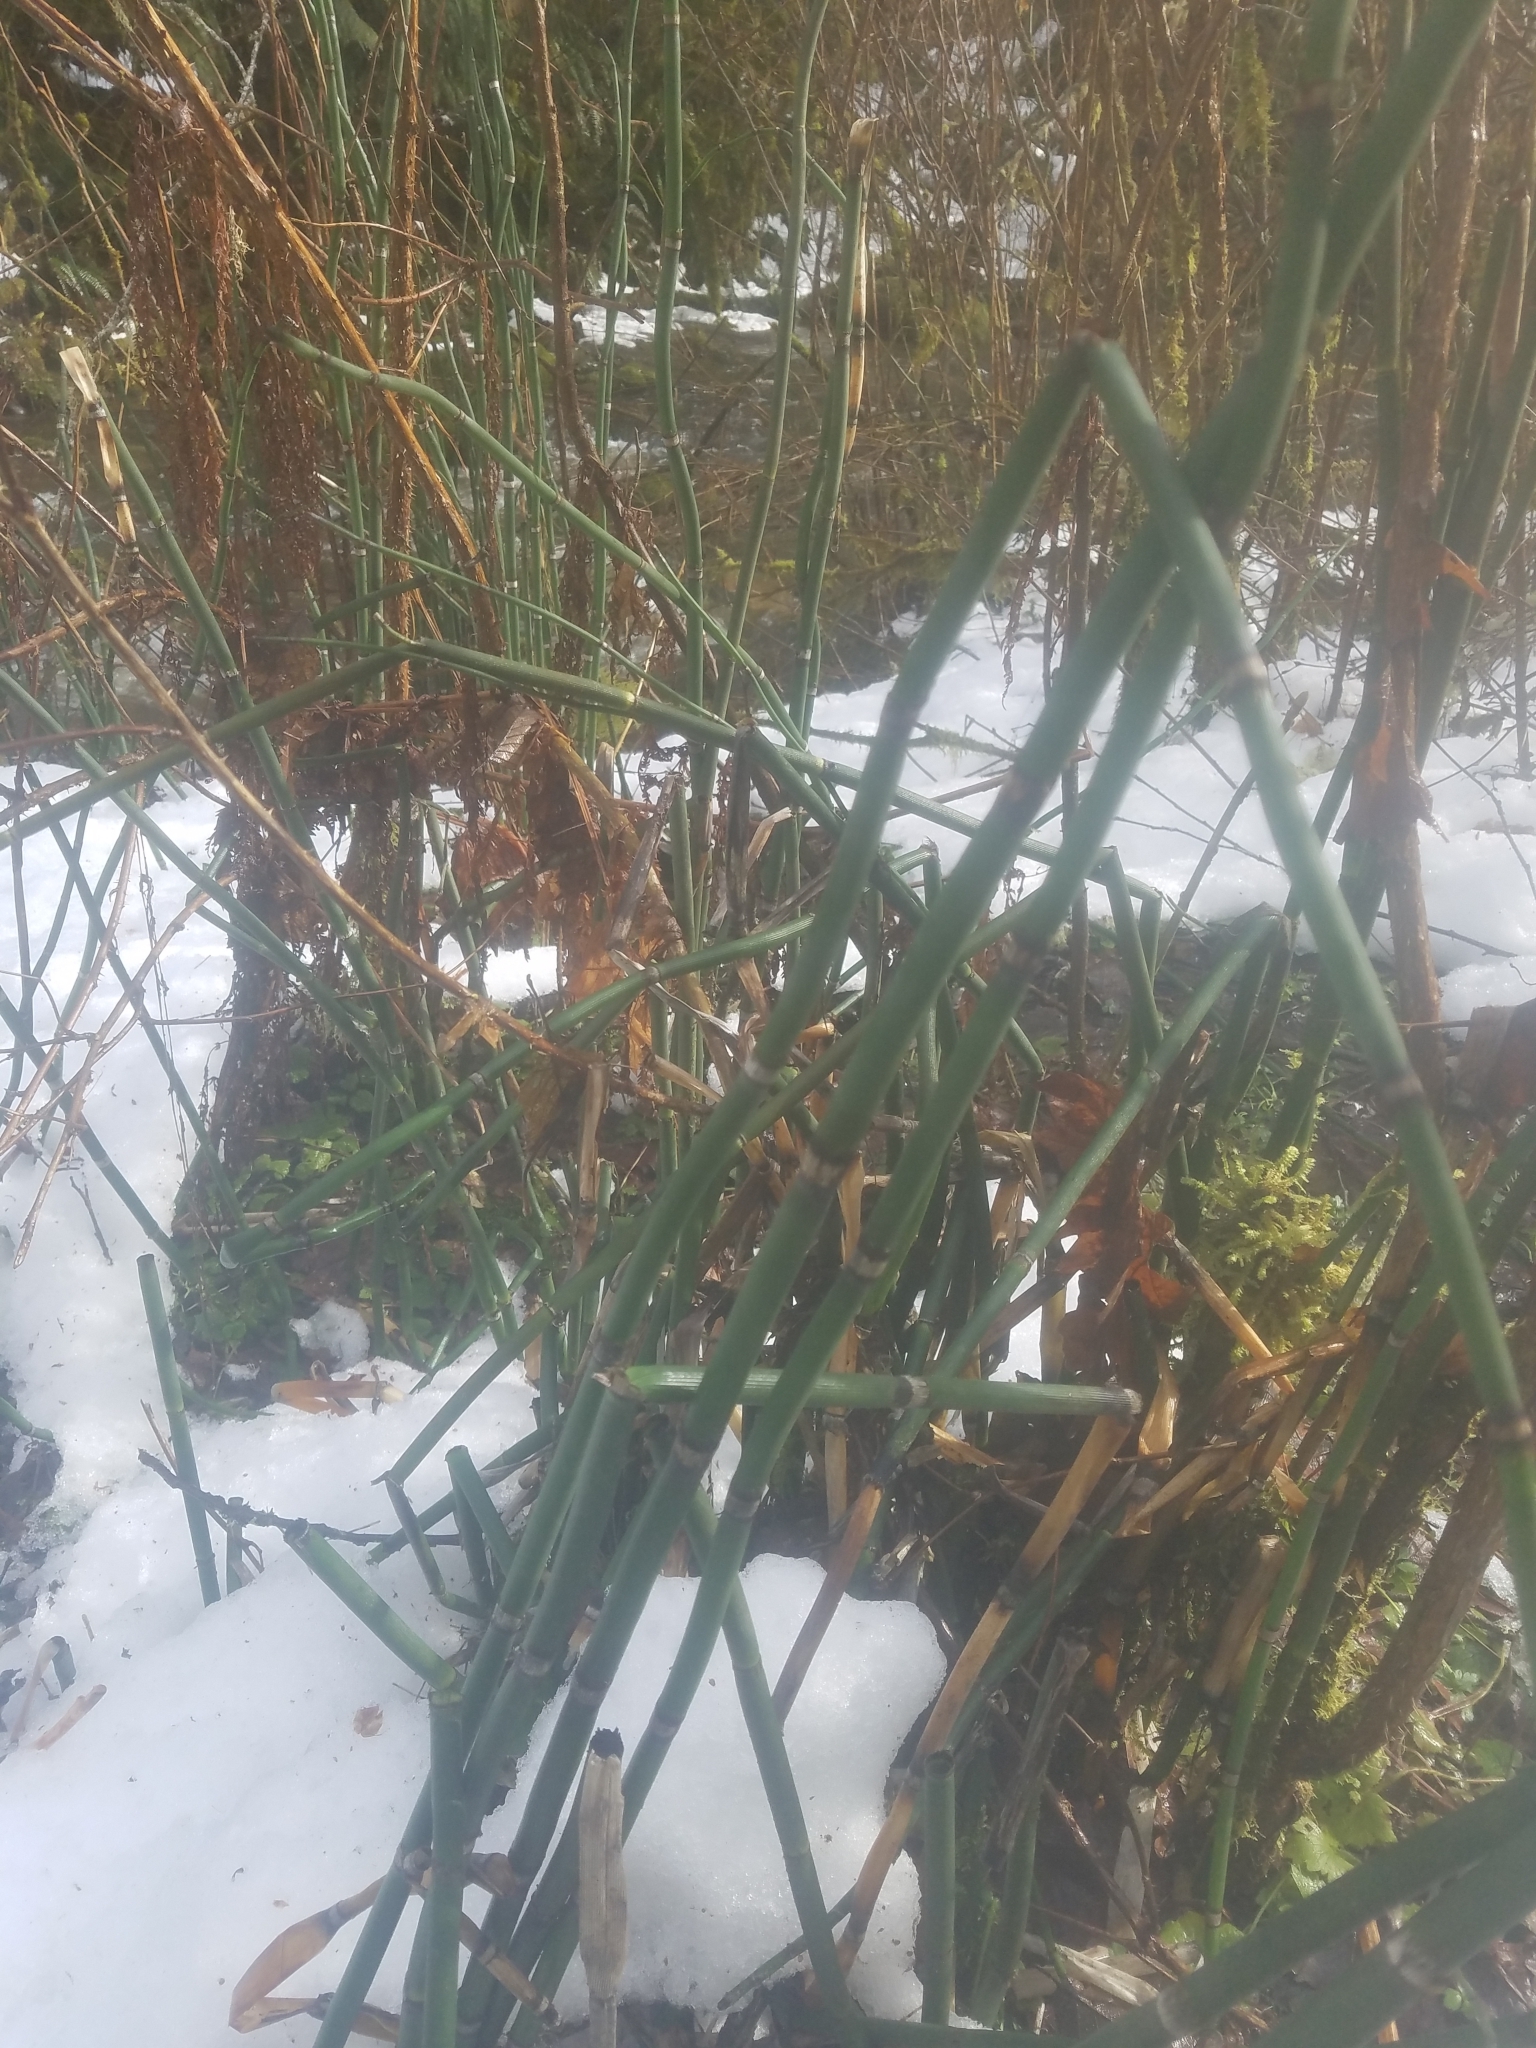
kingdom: Plantae
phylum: Tracheophyta
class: Polypodiopsida
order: Equisetales
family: Equisetaceae
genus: Equisetum
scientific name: Equisetum praealtum
